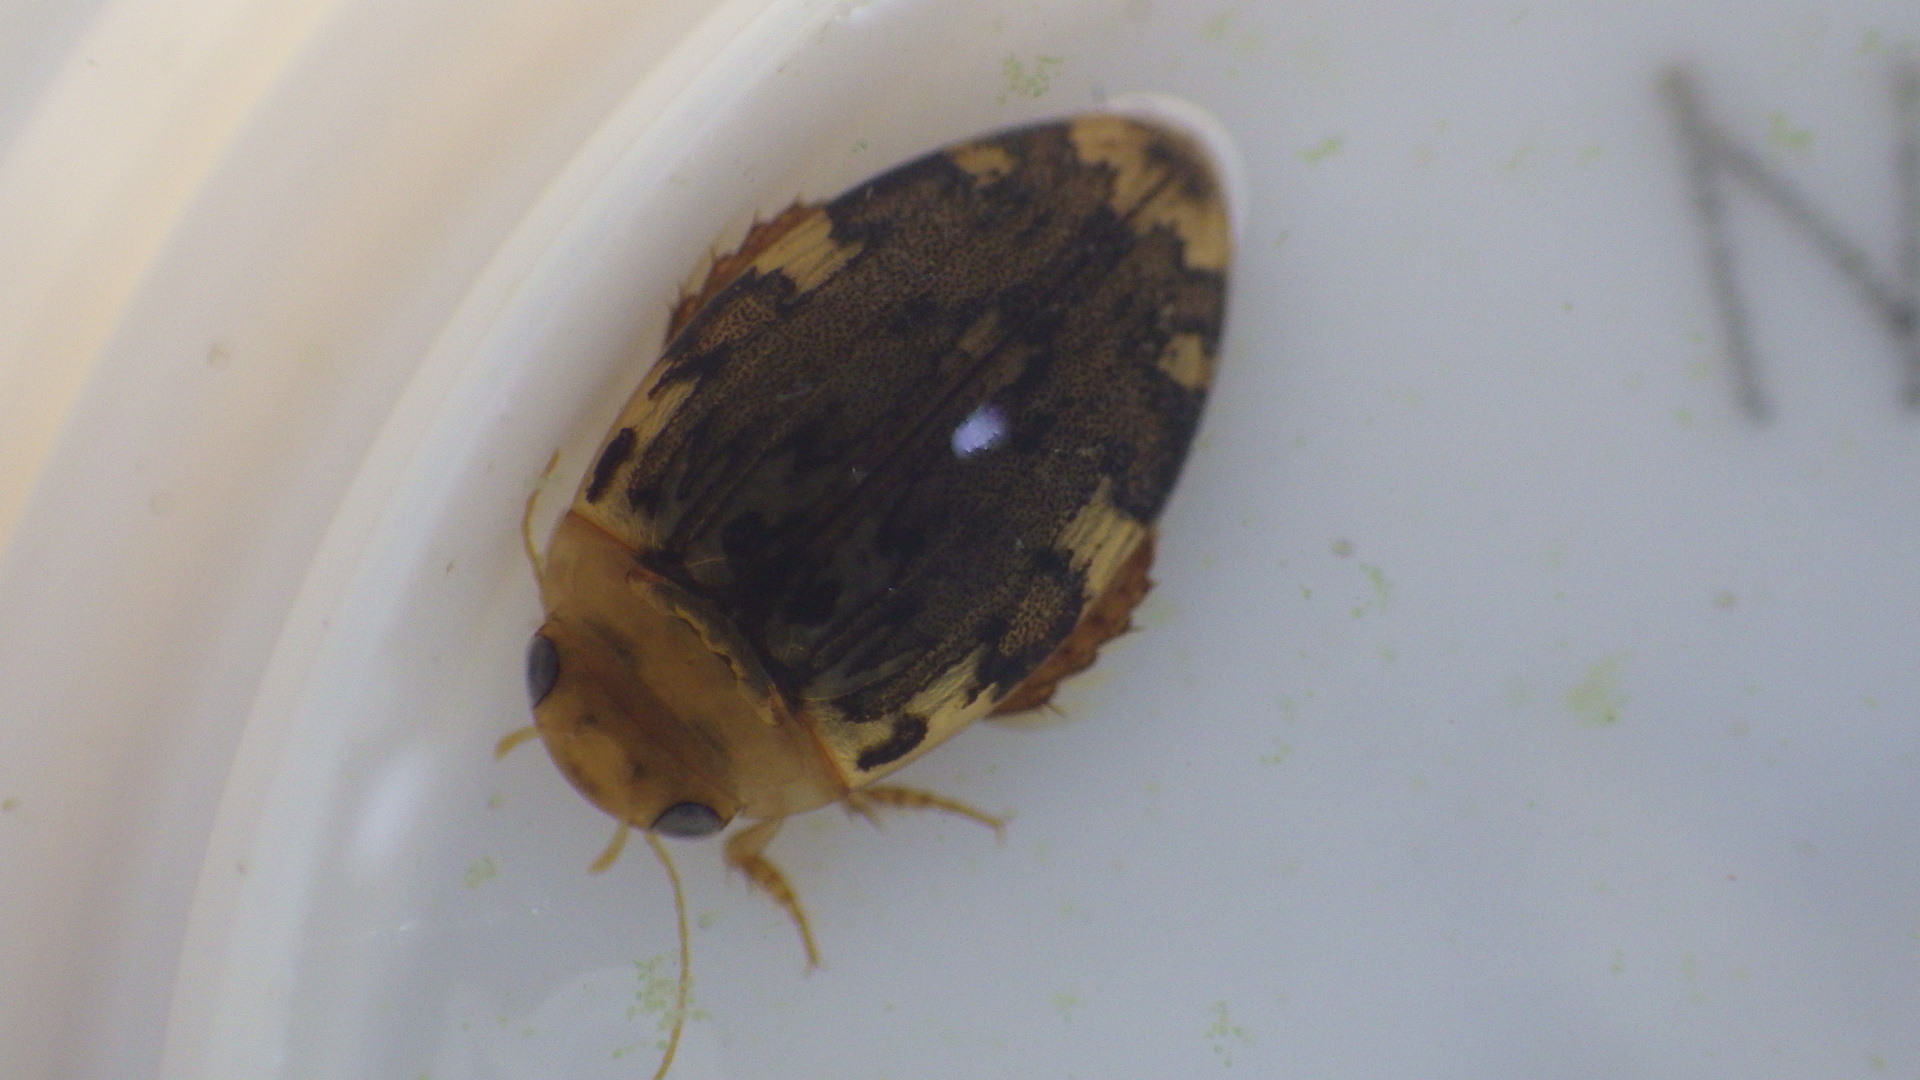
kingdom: Animalia
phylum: Arthropoda
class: Insecta
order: Coleoptera
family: Dytiscidae
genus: Laccophilus
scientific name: Laccophilus maculosus
